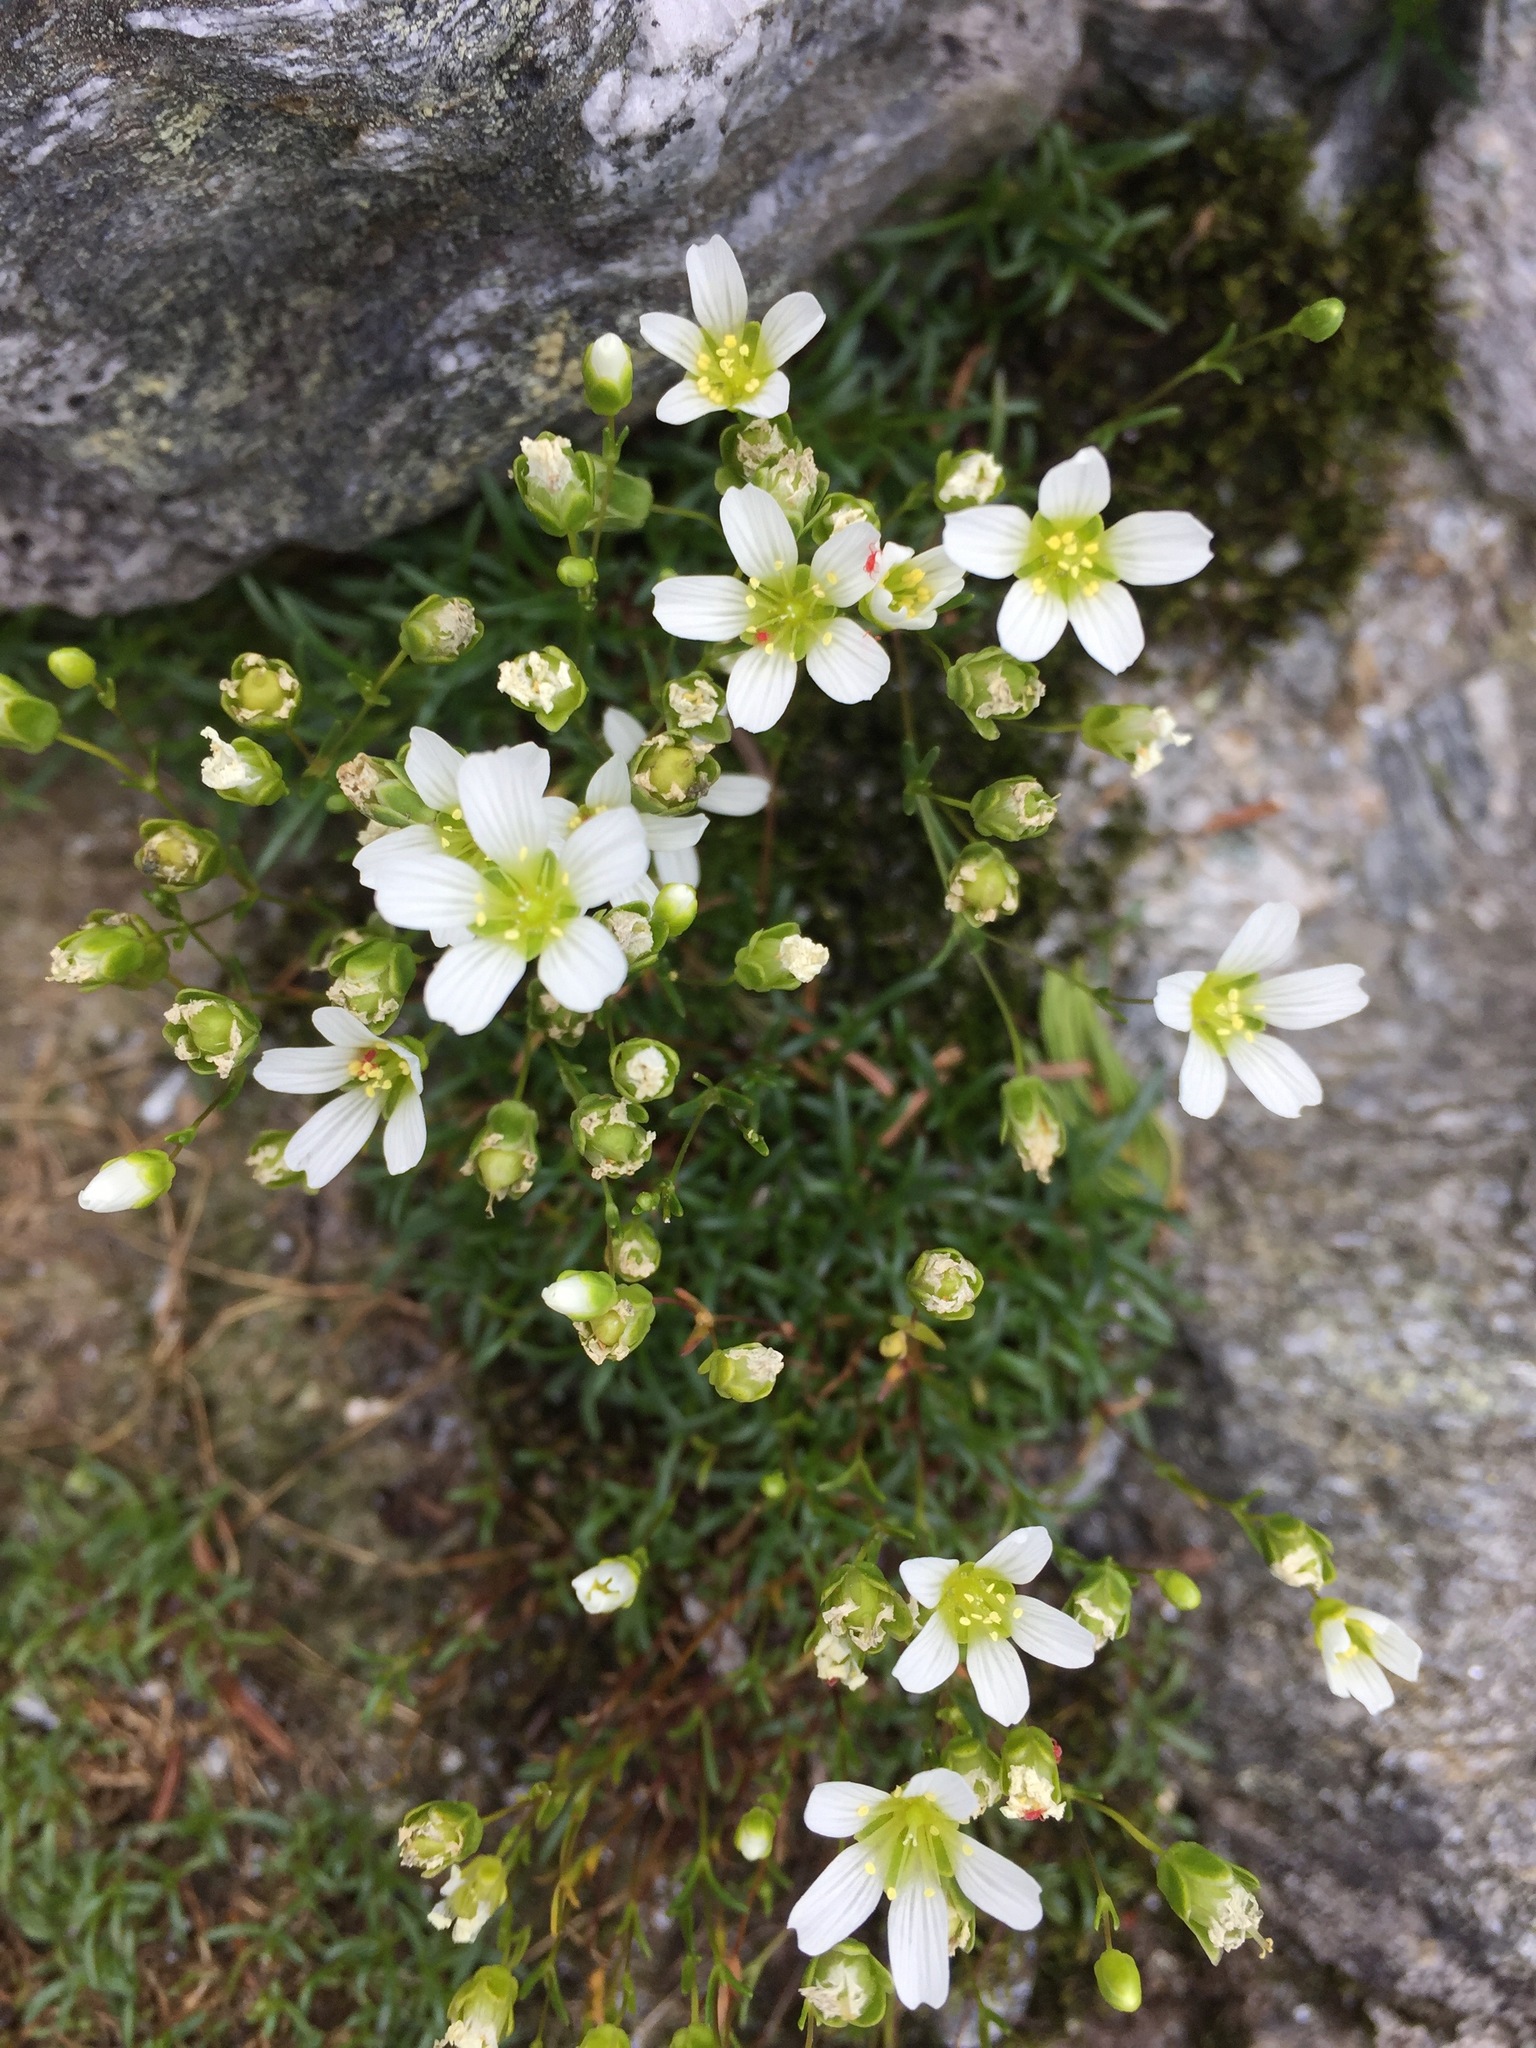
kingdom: Plantae
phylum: Tracheophyta
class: Magnoliopsida
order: Caryophyllales
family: Caryophyllaceae
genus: Geocarpon
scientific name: Geocarpon groenlandicum
